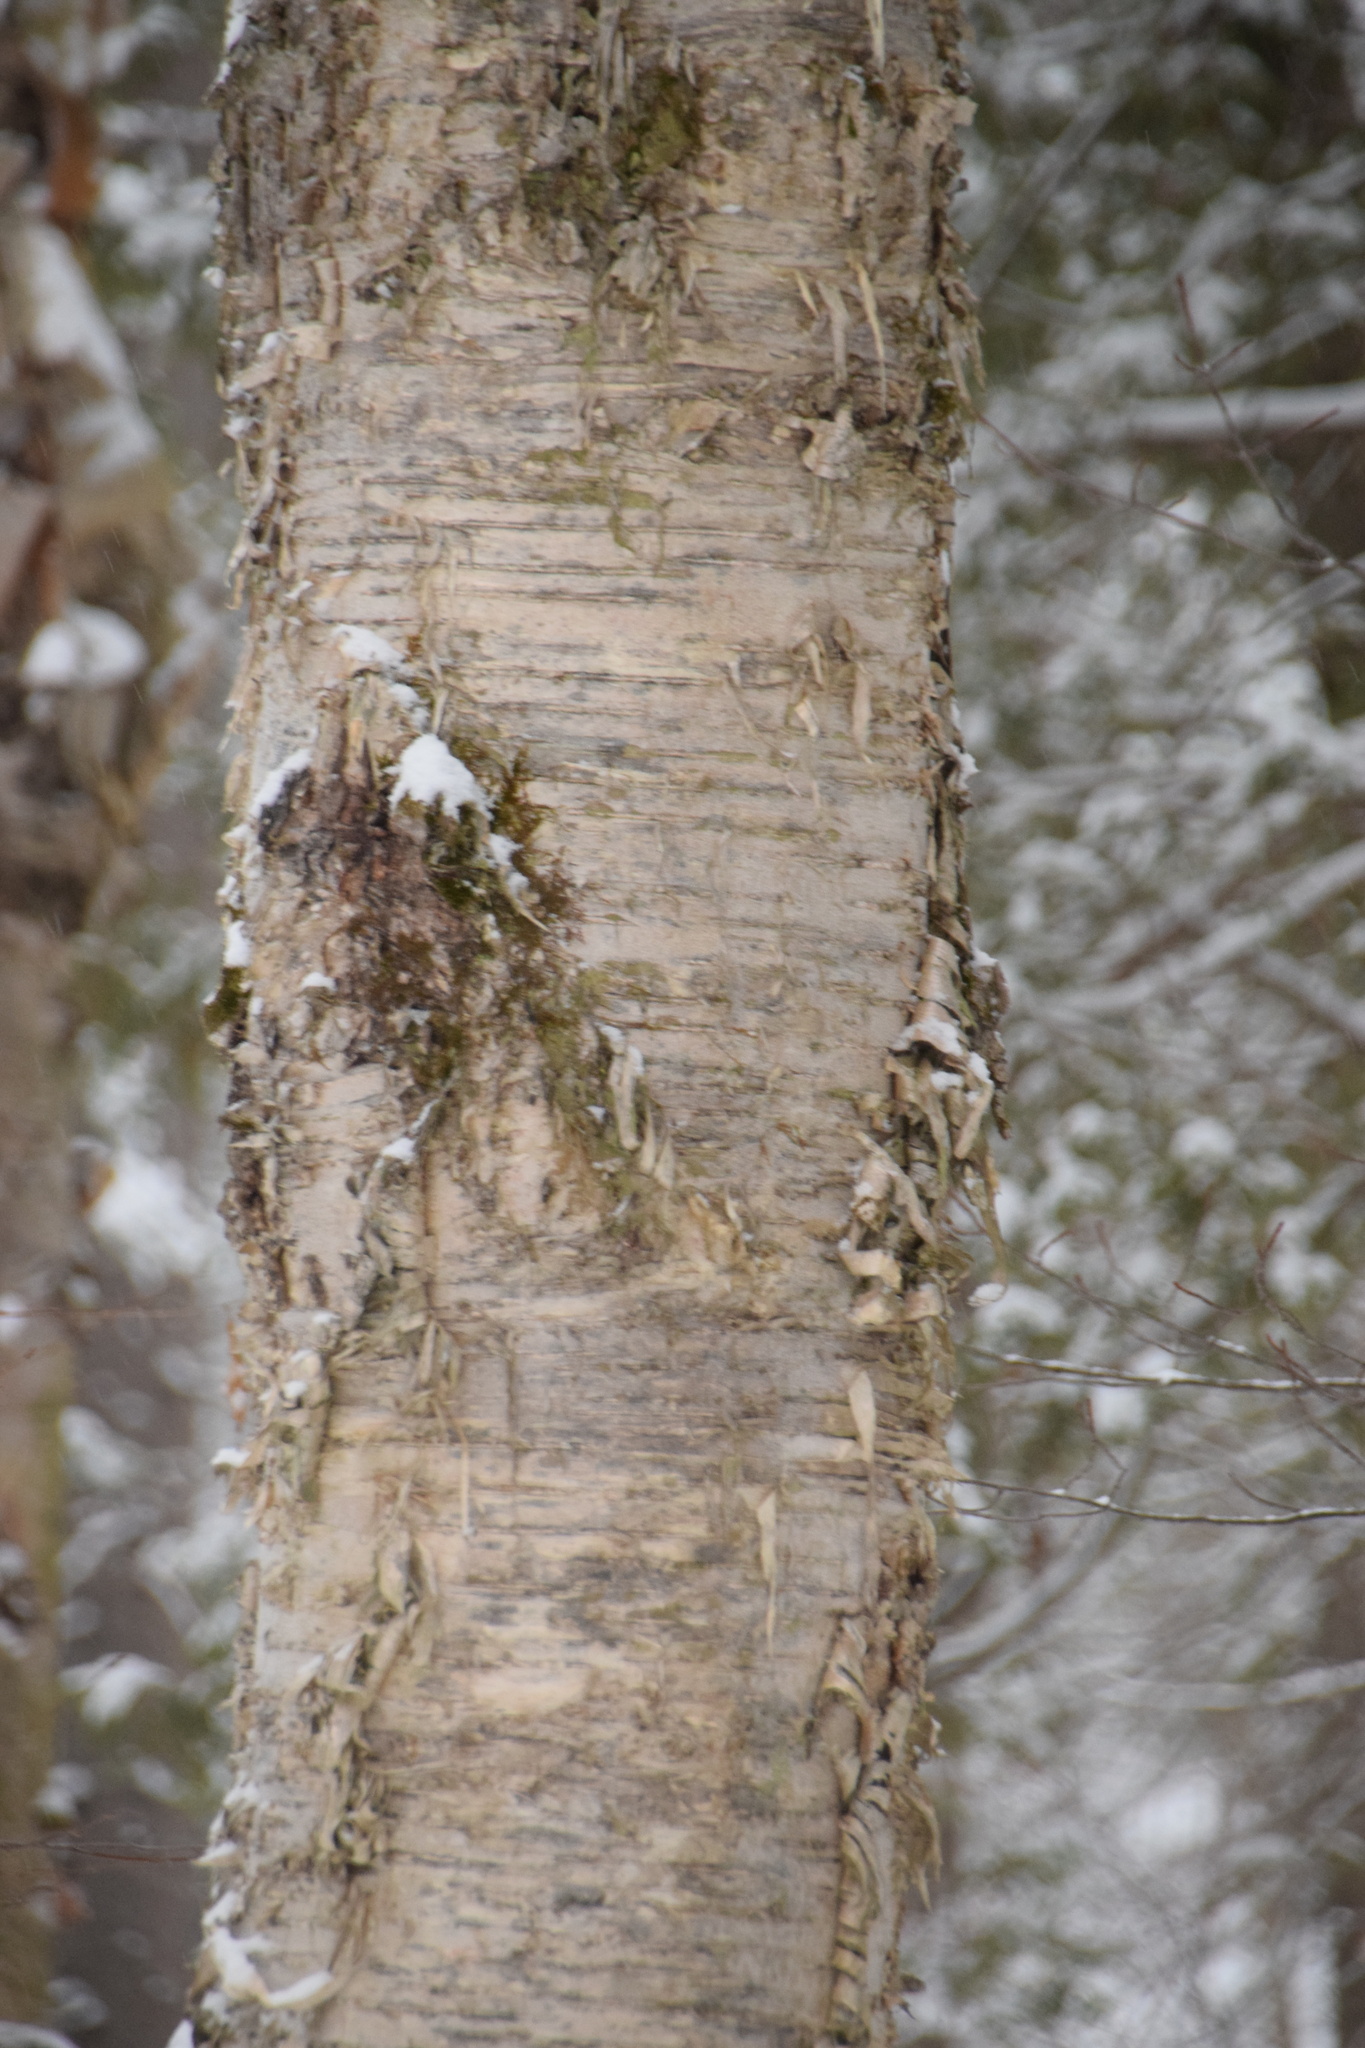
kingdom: Plantae
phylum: Tracheophyta
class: Magnoliopsida
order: Fagales
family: Betulaceae
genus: Betula
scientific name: Betula alleghaniensis
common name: Yellow birch
